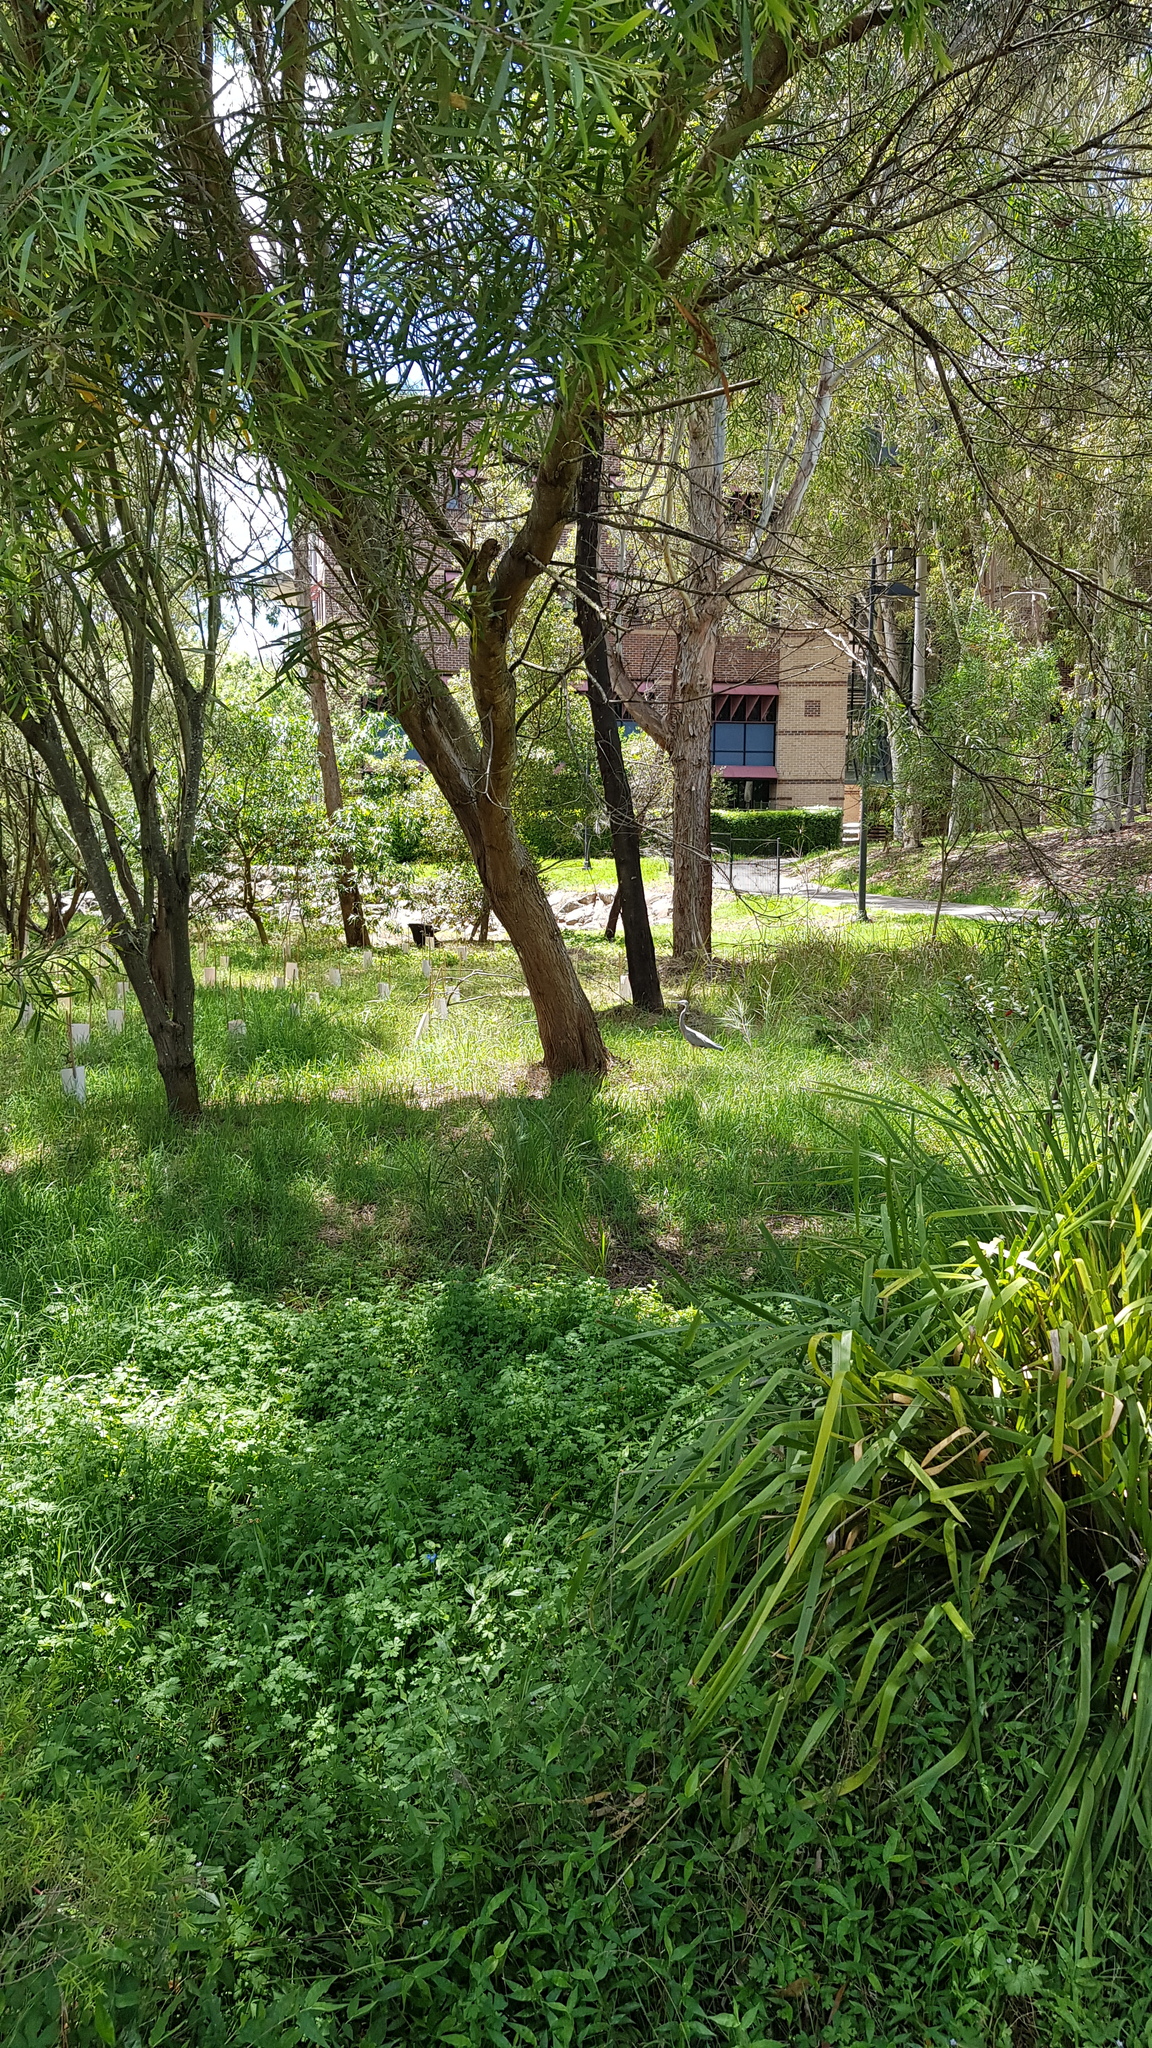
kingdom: Animalia
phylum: Chordata
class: Aves
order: Pelecaniformes
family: Ardeidae
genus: Egretta
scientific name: Egretta novaehollandiae
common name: White-faced heron
